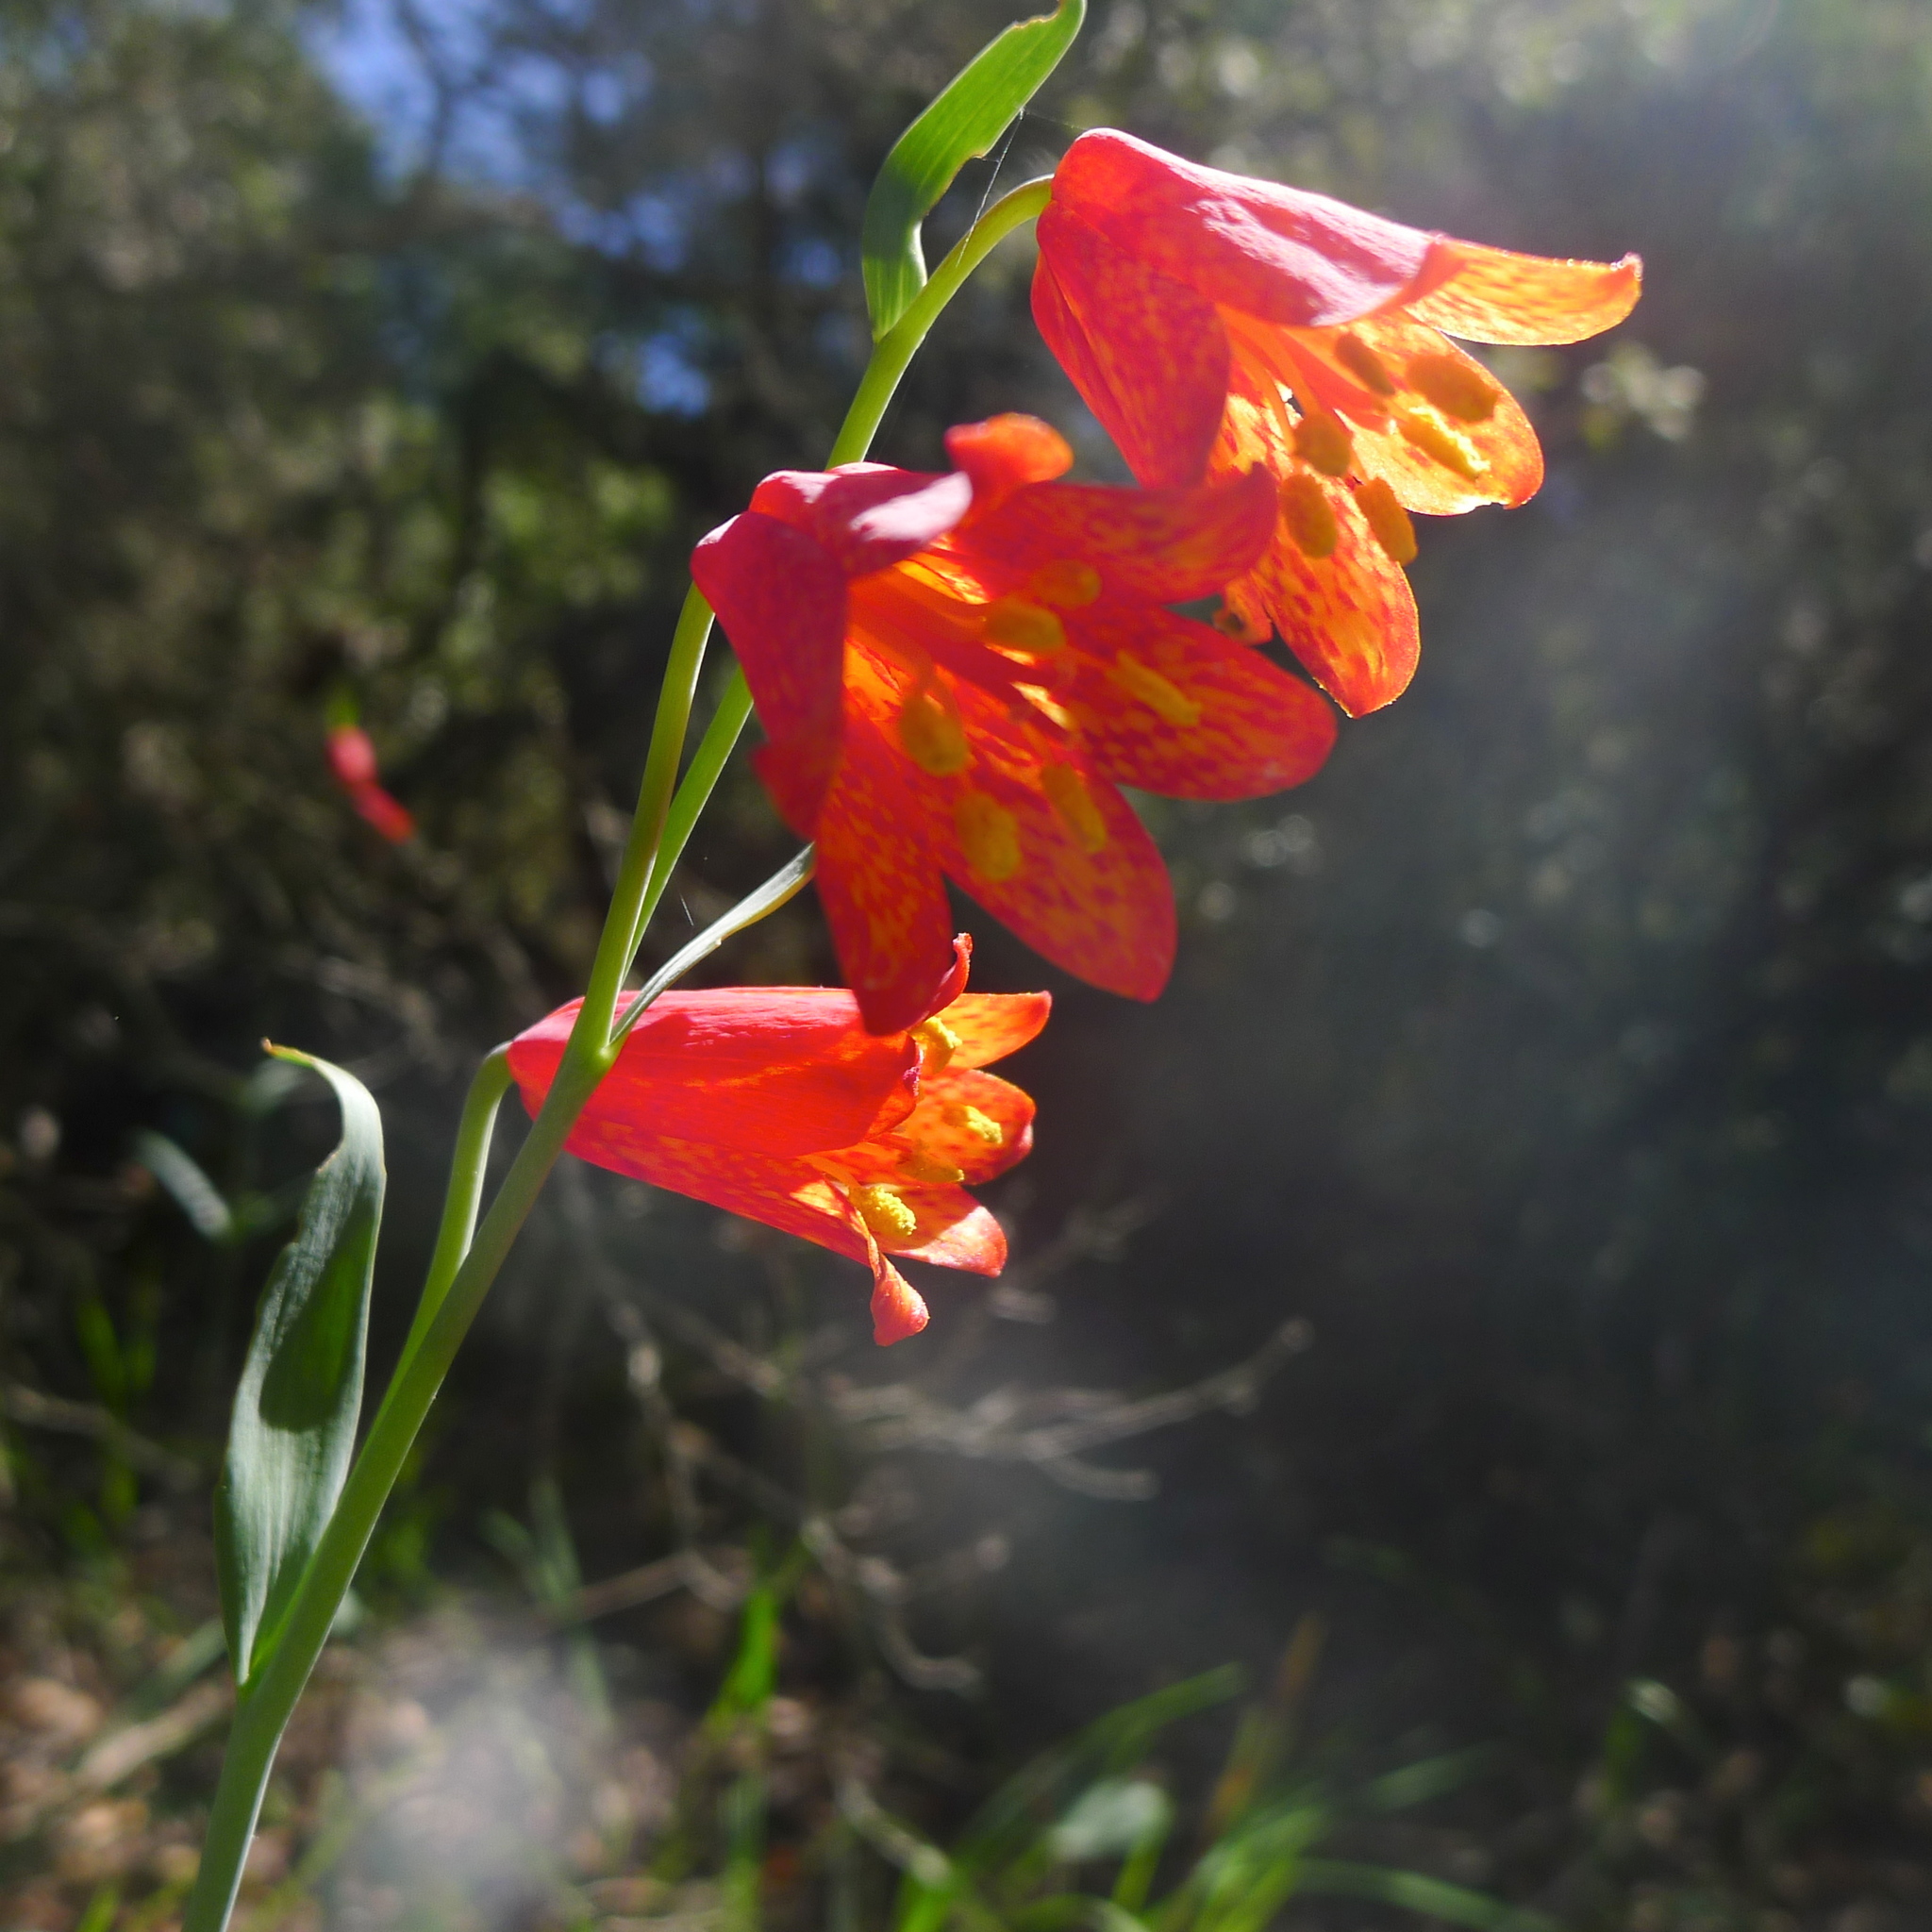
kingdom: Plantae
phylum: Tracheophyta
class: Liliopsida
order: Liliales
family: Liliaceae
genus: Fritillaria
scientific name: Fritillaria recurva
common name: Scarlet fritillary
